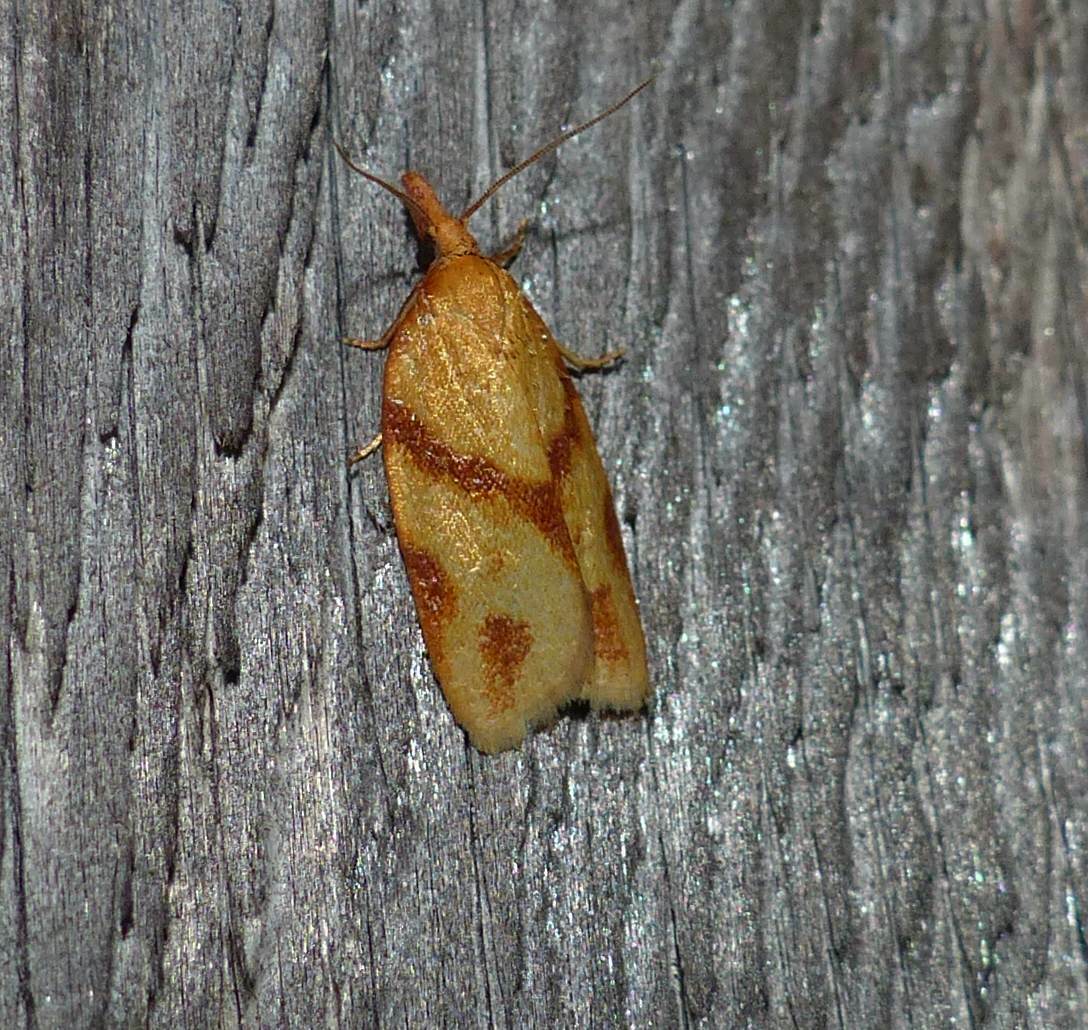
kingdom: Animalia
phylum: Arthropoda
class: Insecta
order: Lepidoptera
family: Tortricidae
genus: Sparganothis
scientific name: Sparganothis unifasciana
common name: One-lined sparganothis moth
